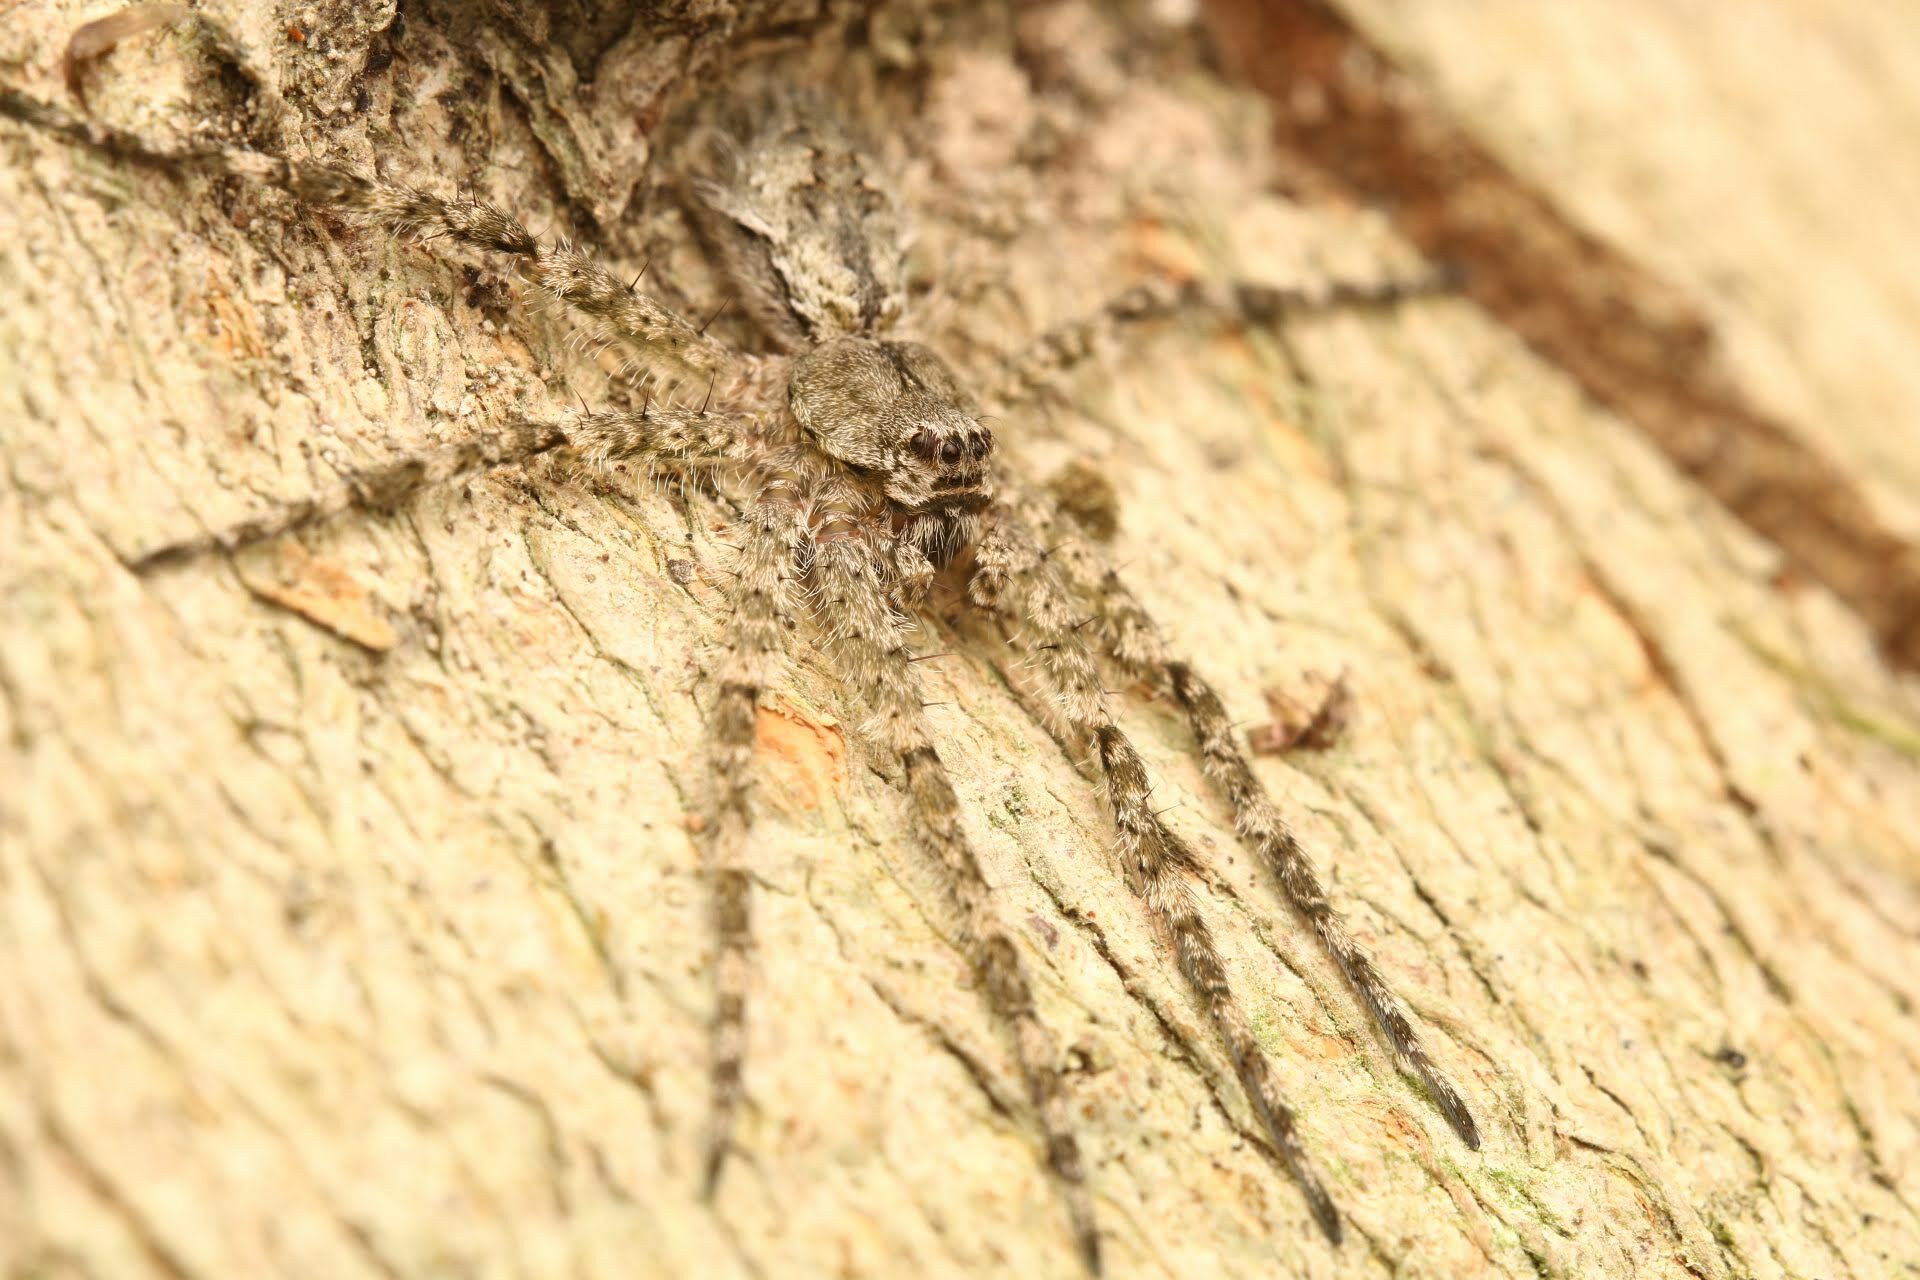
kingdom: Animalia
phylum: Arthropoda
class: Arachnida
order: Araneae
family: Pisauridae
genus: Dolomedes
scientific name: Dolomedes albineus
